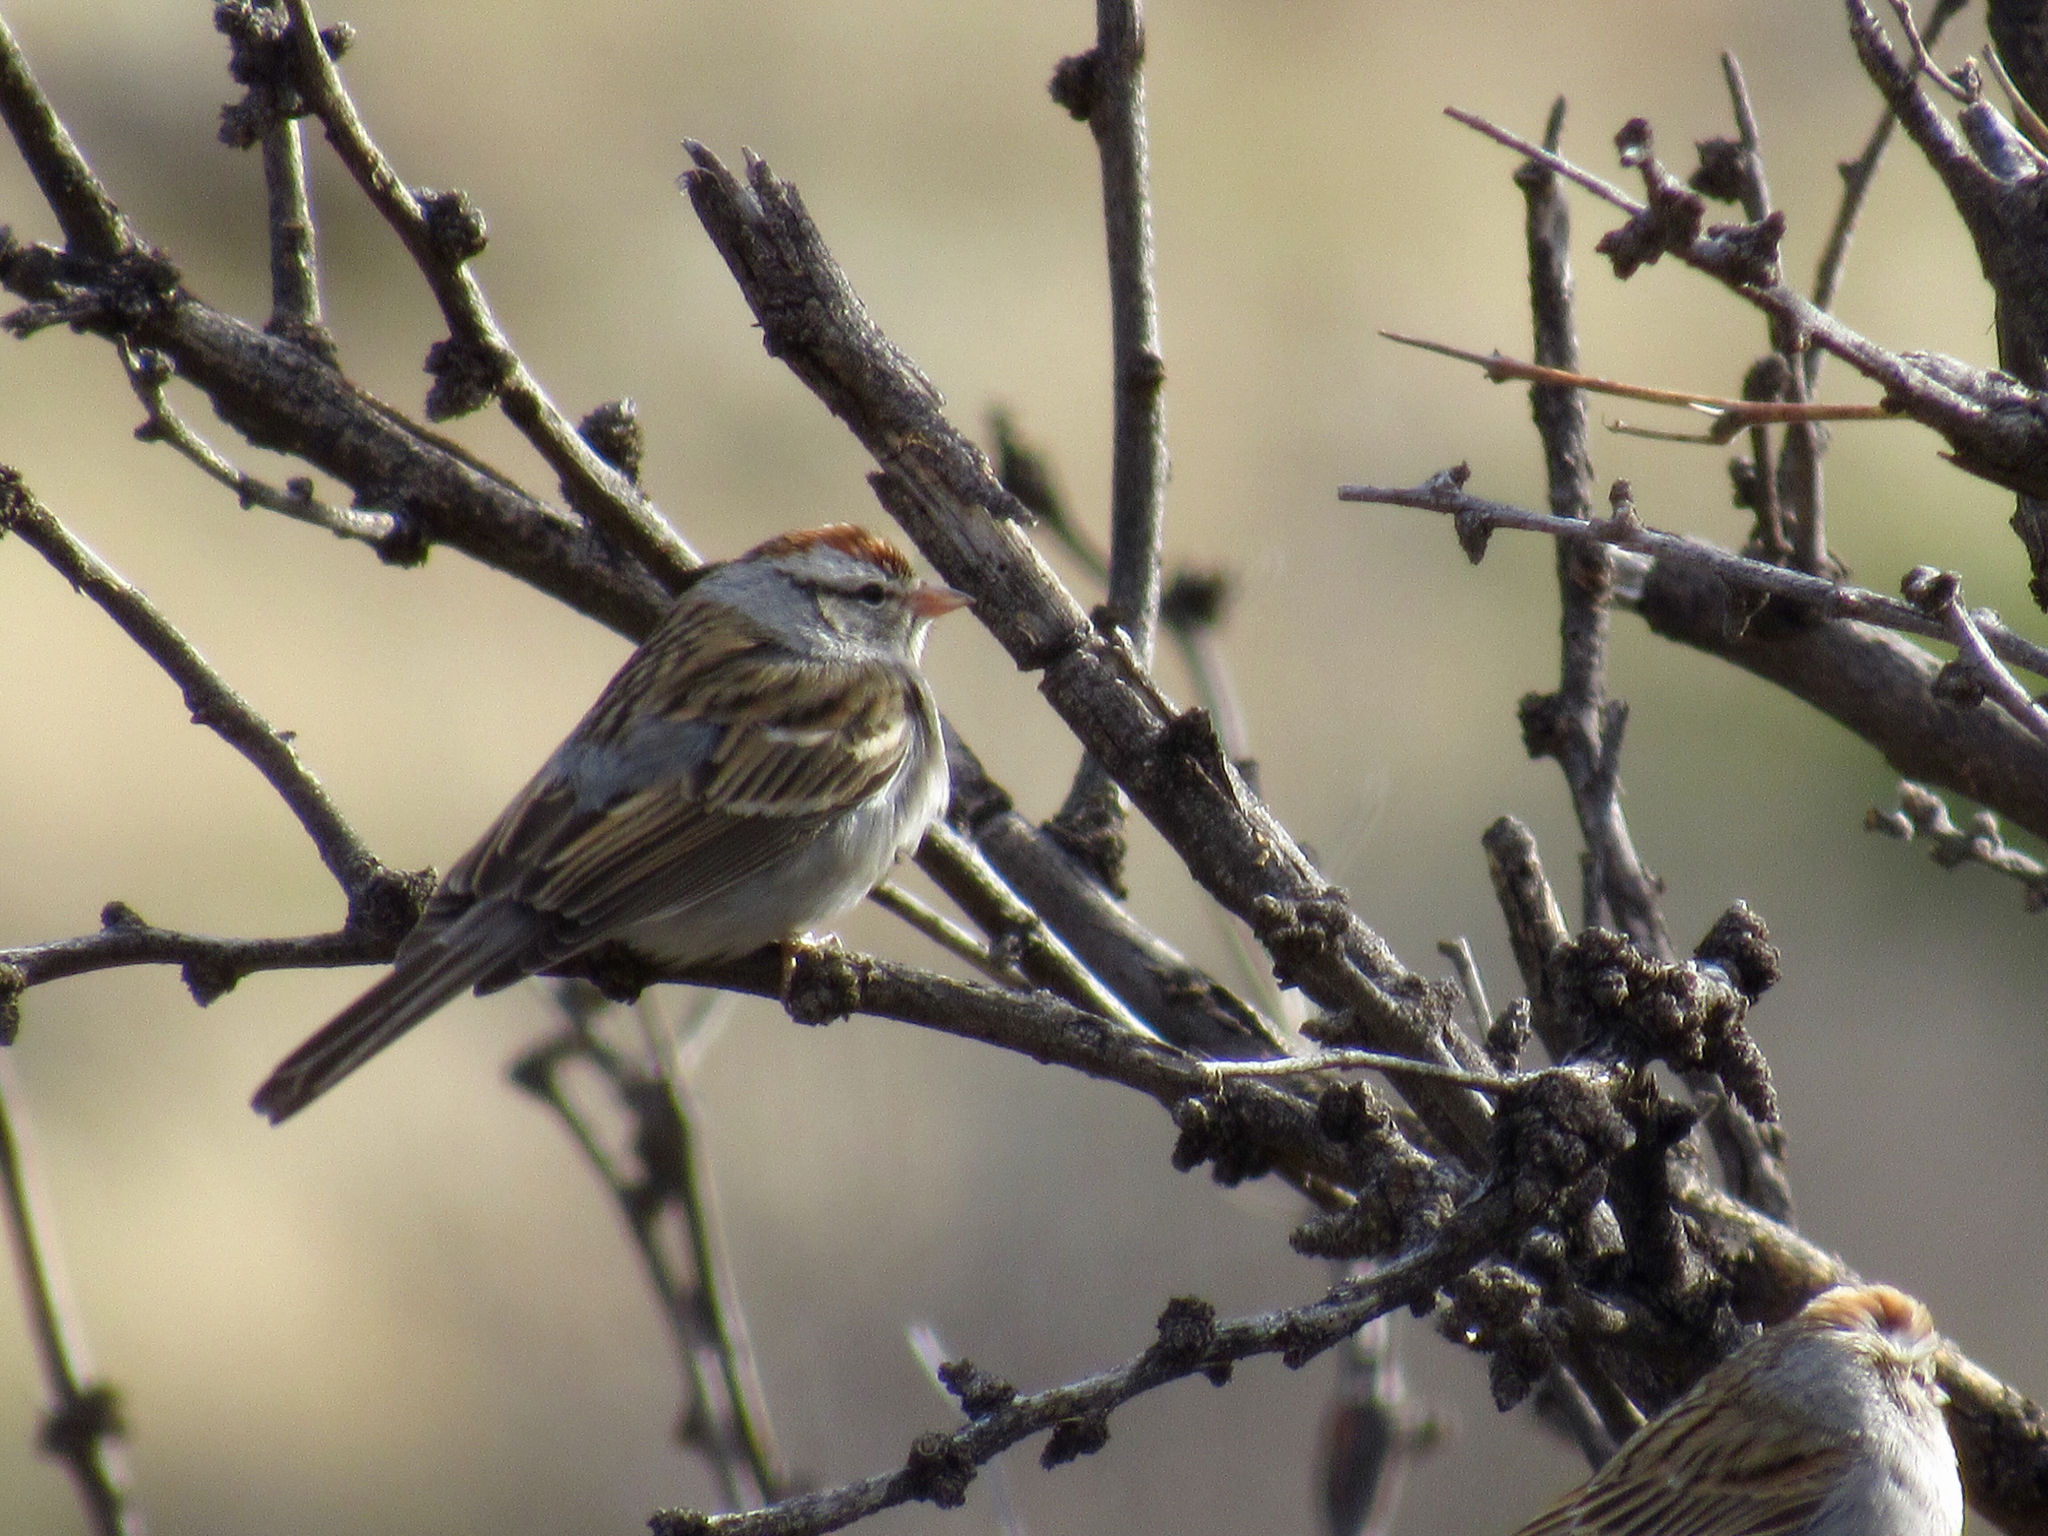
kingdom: Animalia
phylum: Chordata
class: Aves
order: Passeriformes
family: Passerellidae
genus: Spizella
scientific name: Spizella passerina
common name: Chipping sparrow
